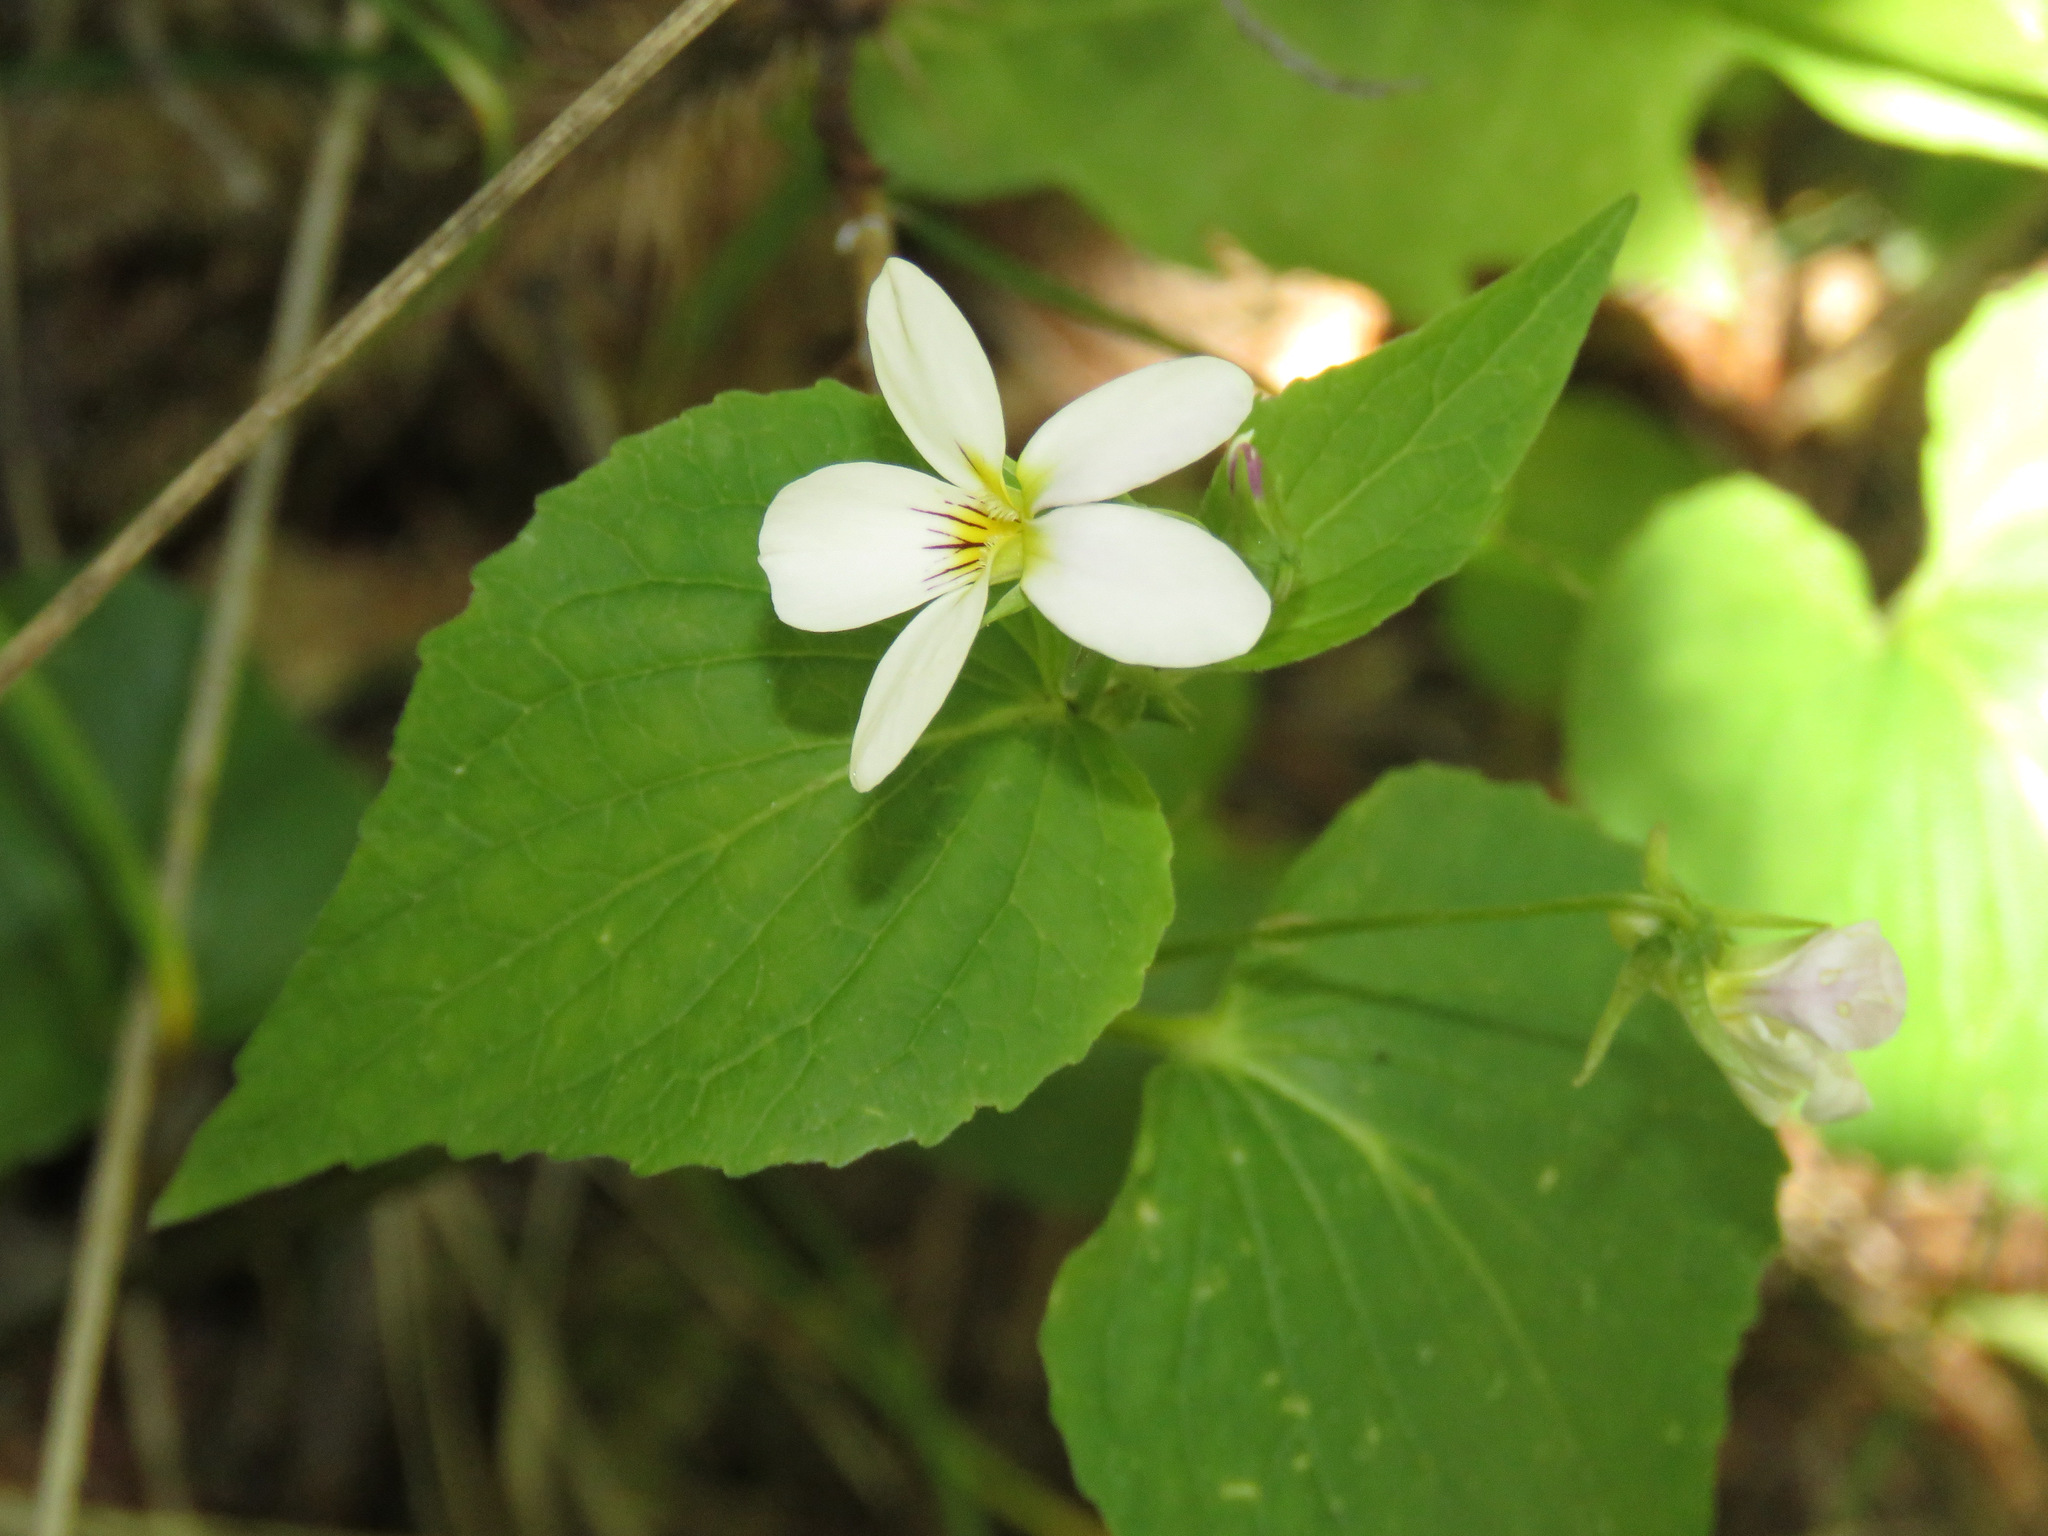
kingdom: Plantae
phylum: Tracheophyta
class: Magnoliopsida
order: Malpighiales
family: Violaceae
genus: Viola
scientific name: Viola canadensis
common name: Canada violet
